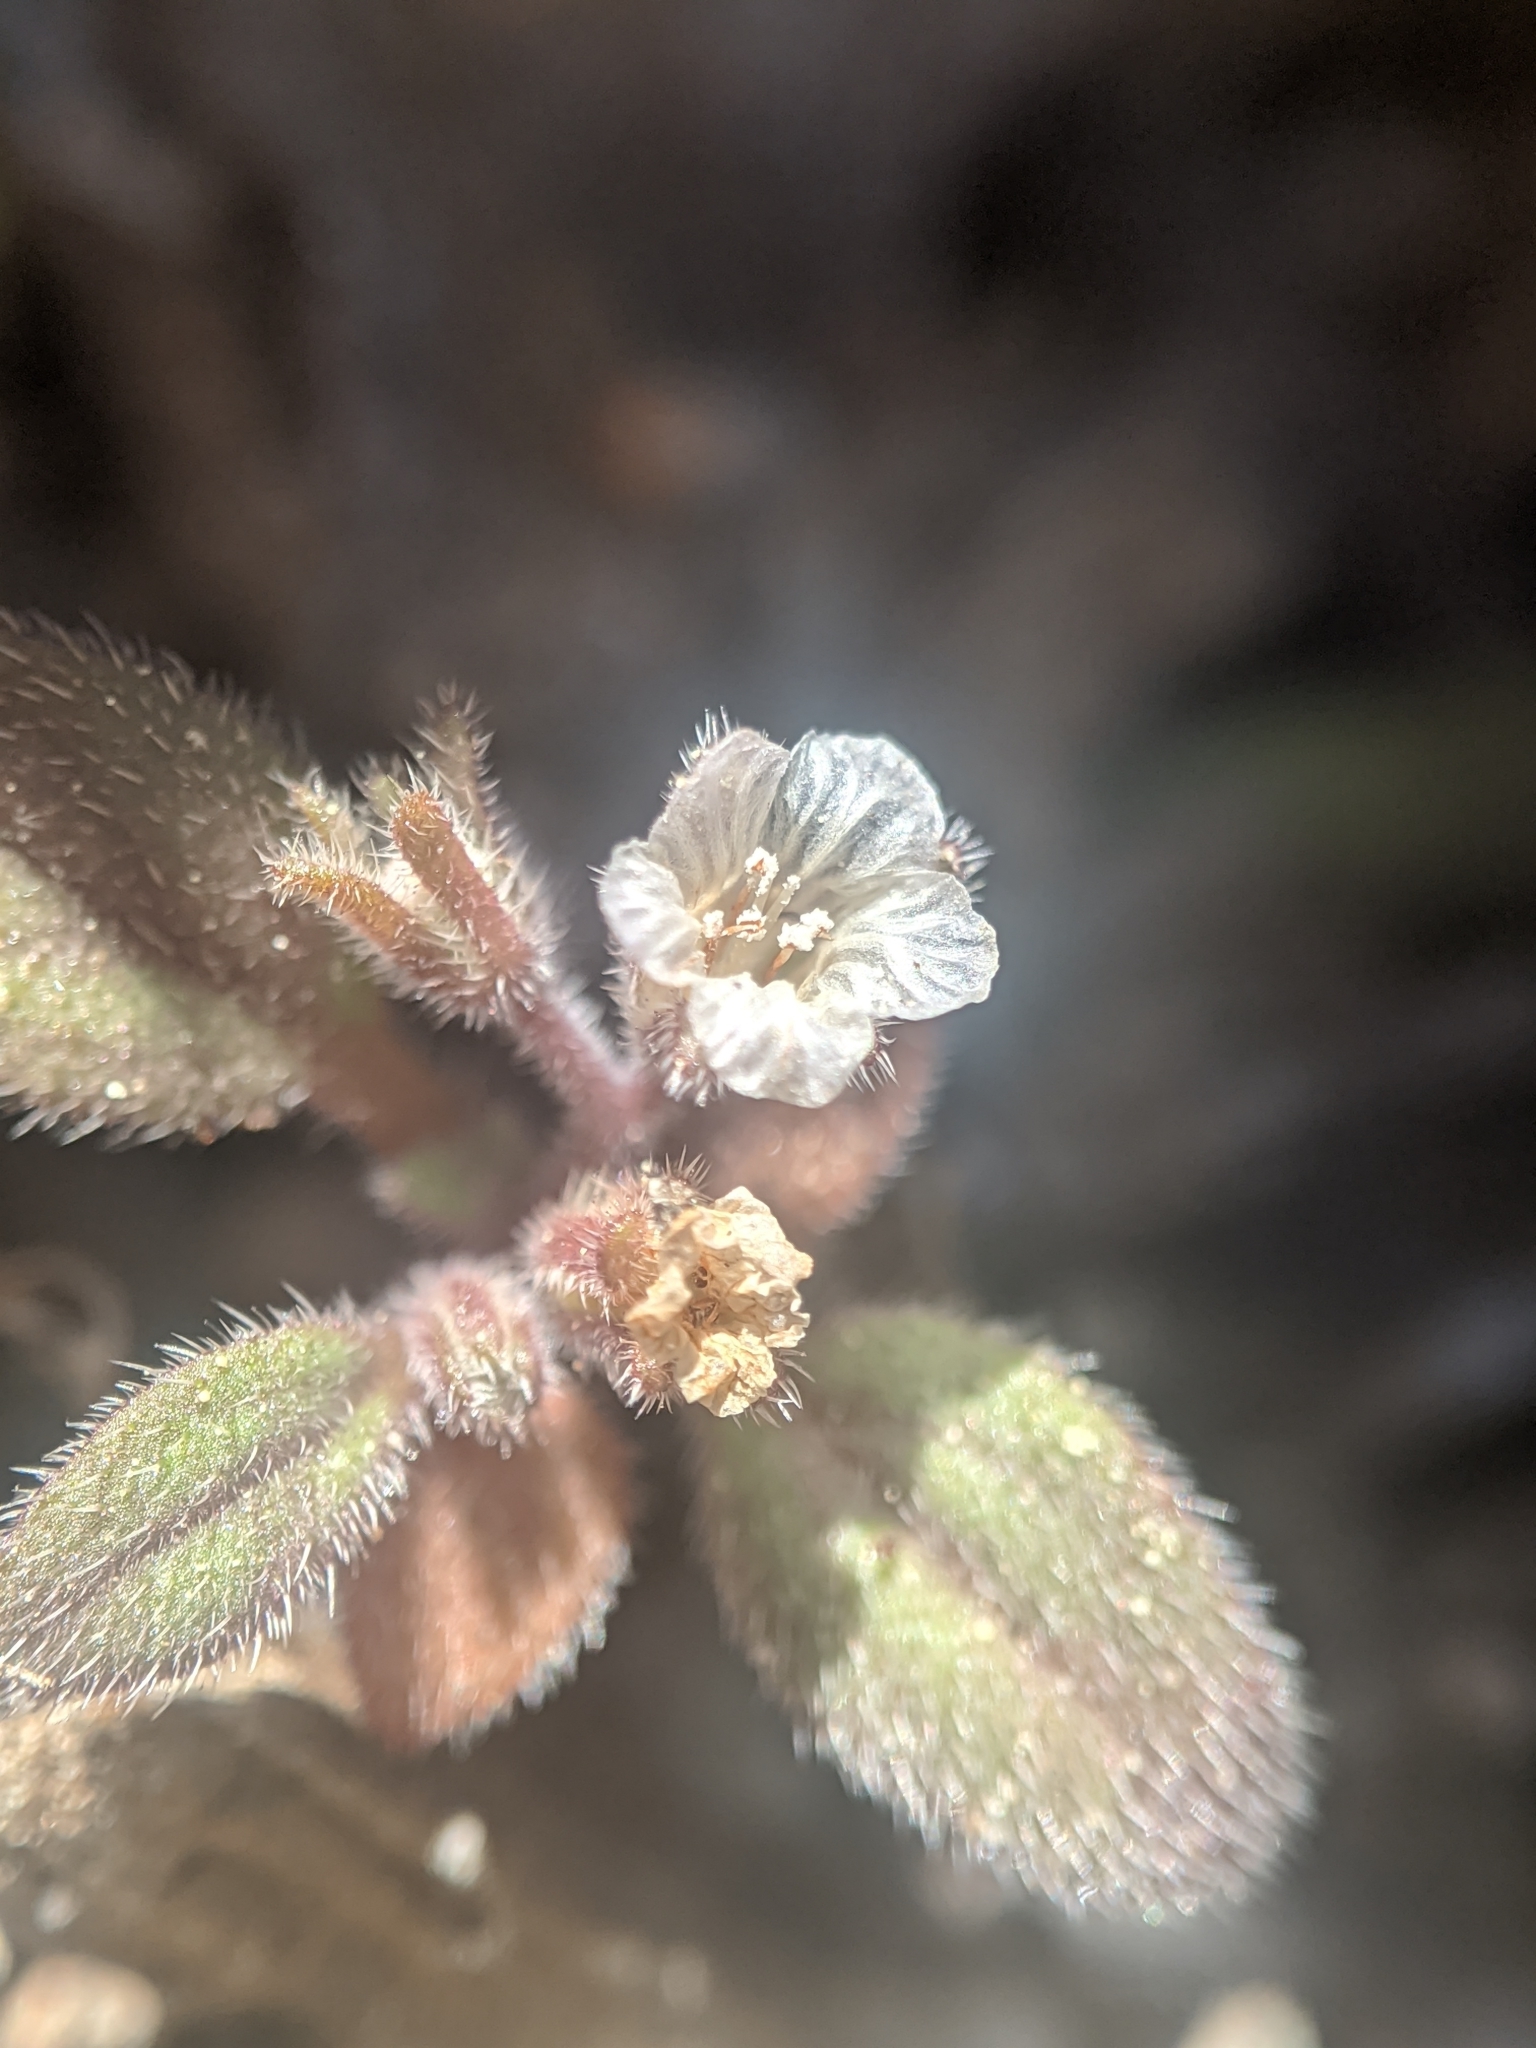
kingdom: Plantae
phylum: Tracheophyta
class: Magnoliopsida
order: Boraginales
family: Hydrophyllaceae
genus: Phacelia
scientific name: Phacelia eisenii
